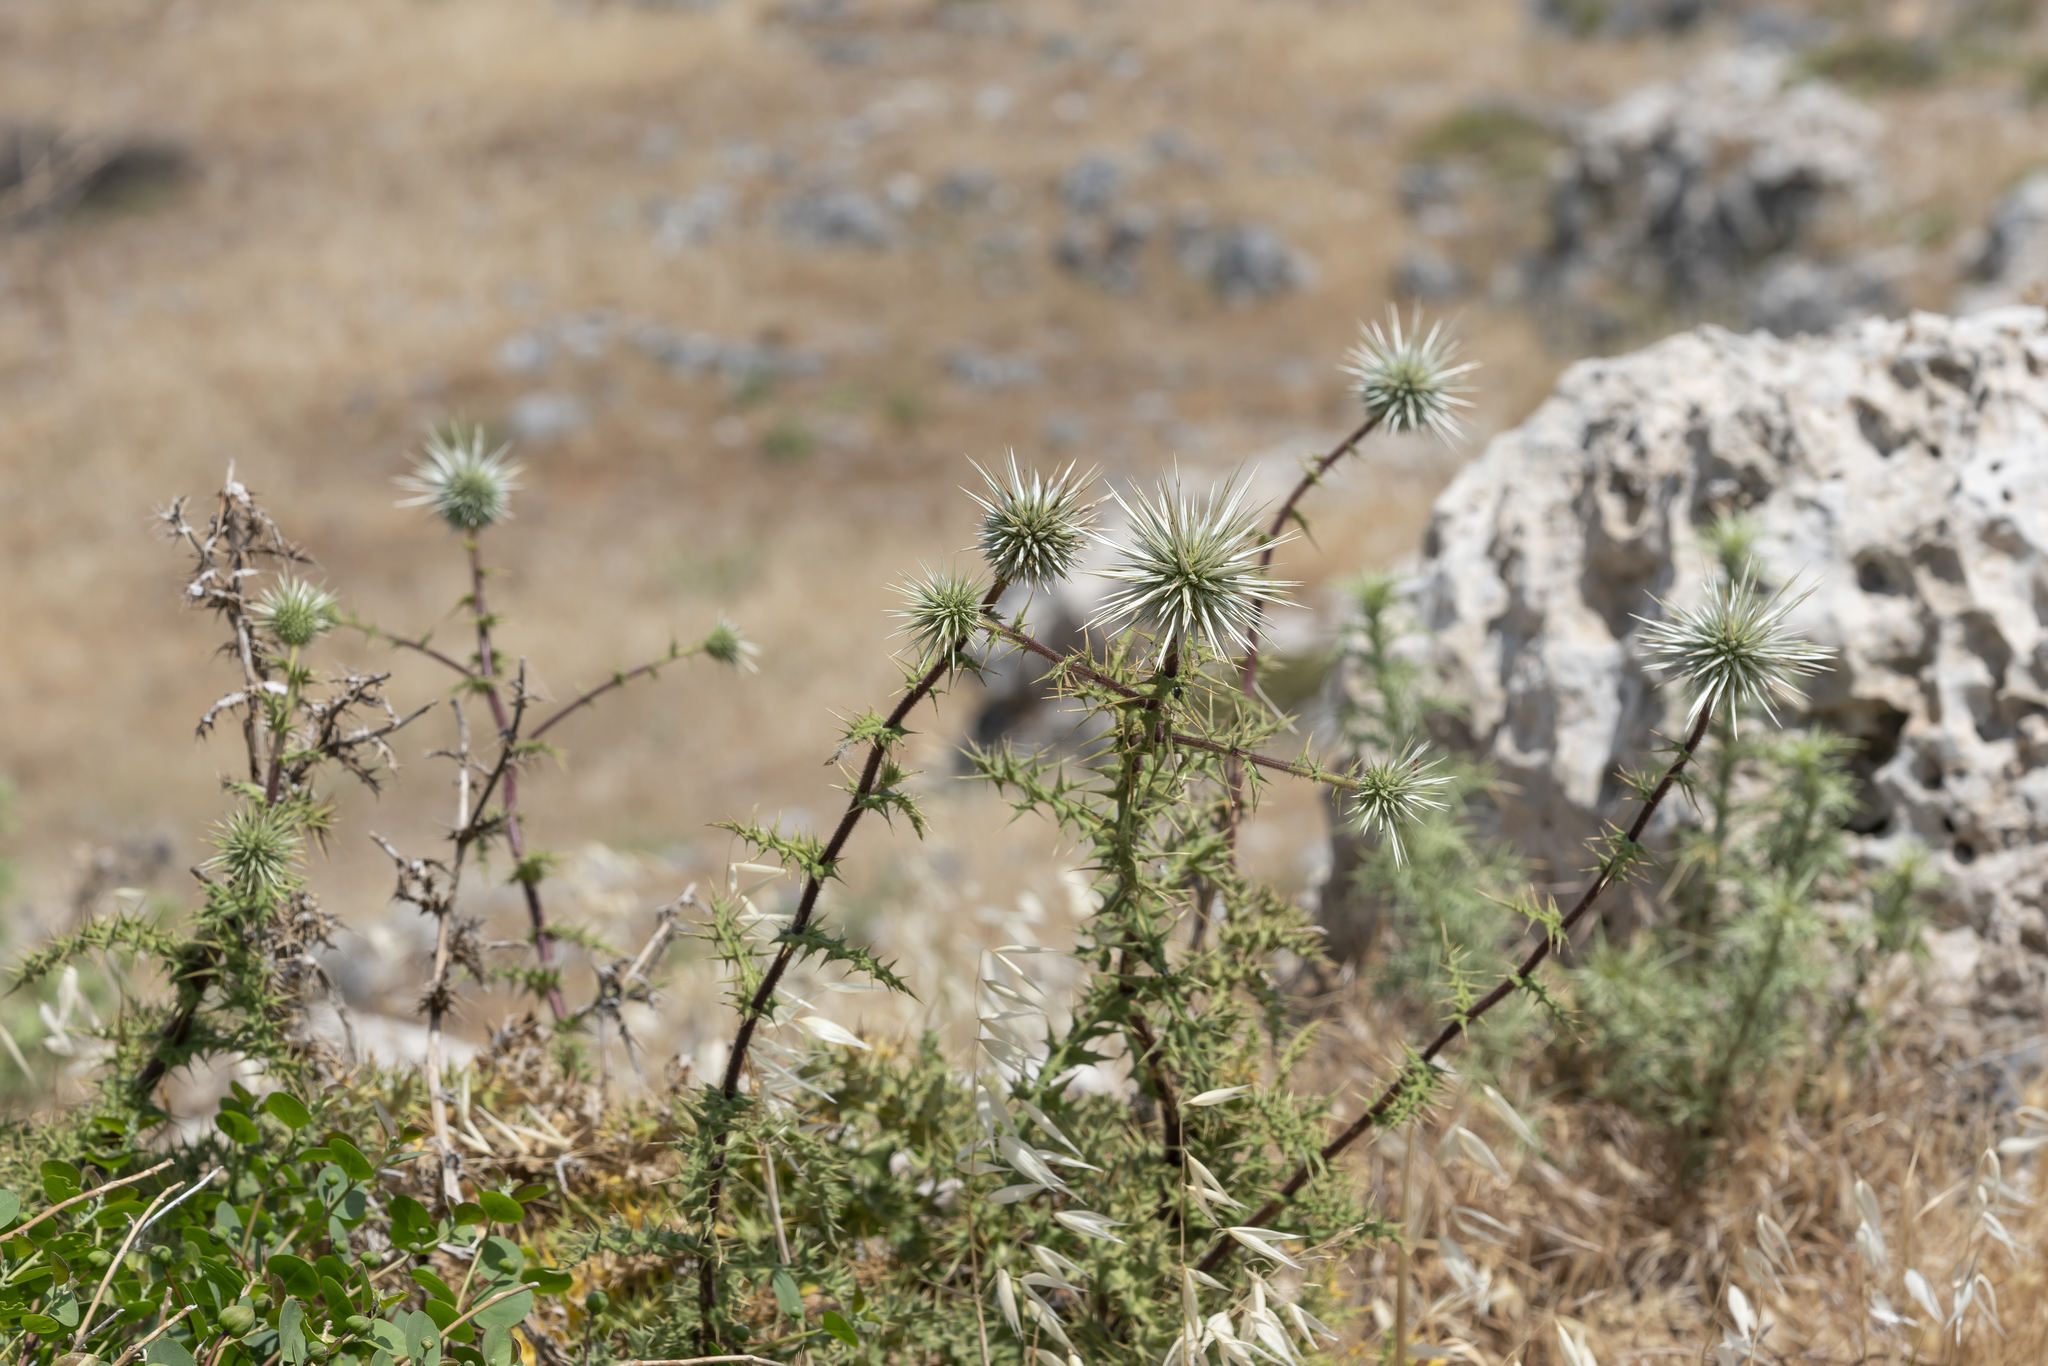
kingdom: Plantae
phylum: Tracheophyta
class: Magnoliopsida
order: Asterales
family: Asteraceae
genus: Echinops
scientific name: Echinops spinosissimus
